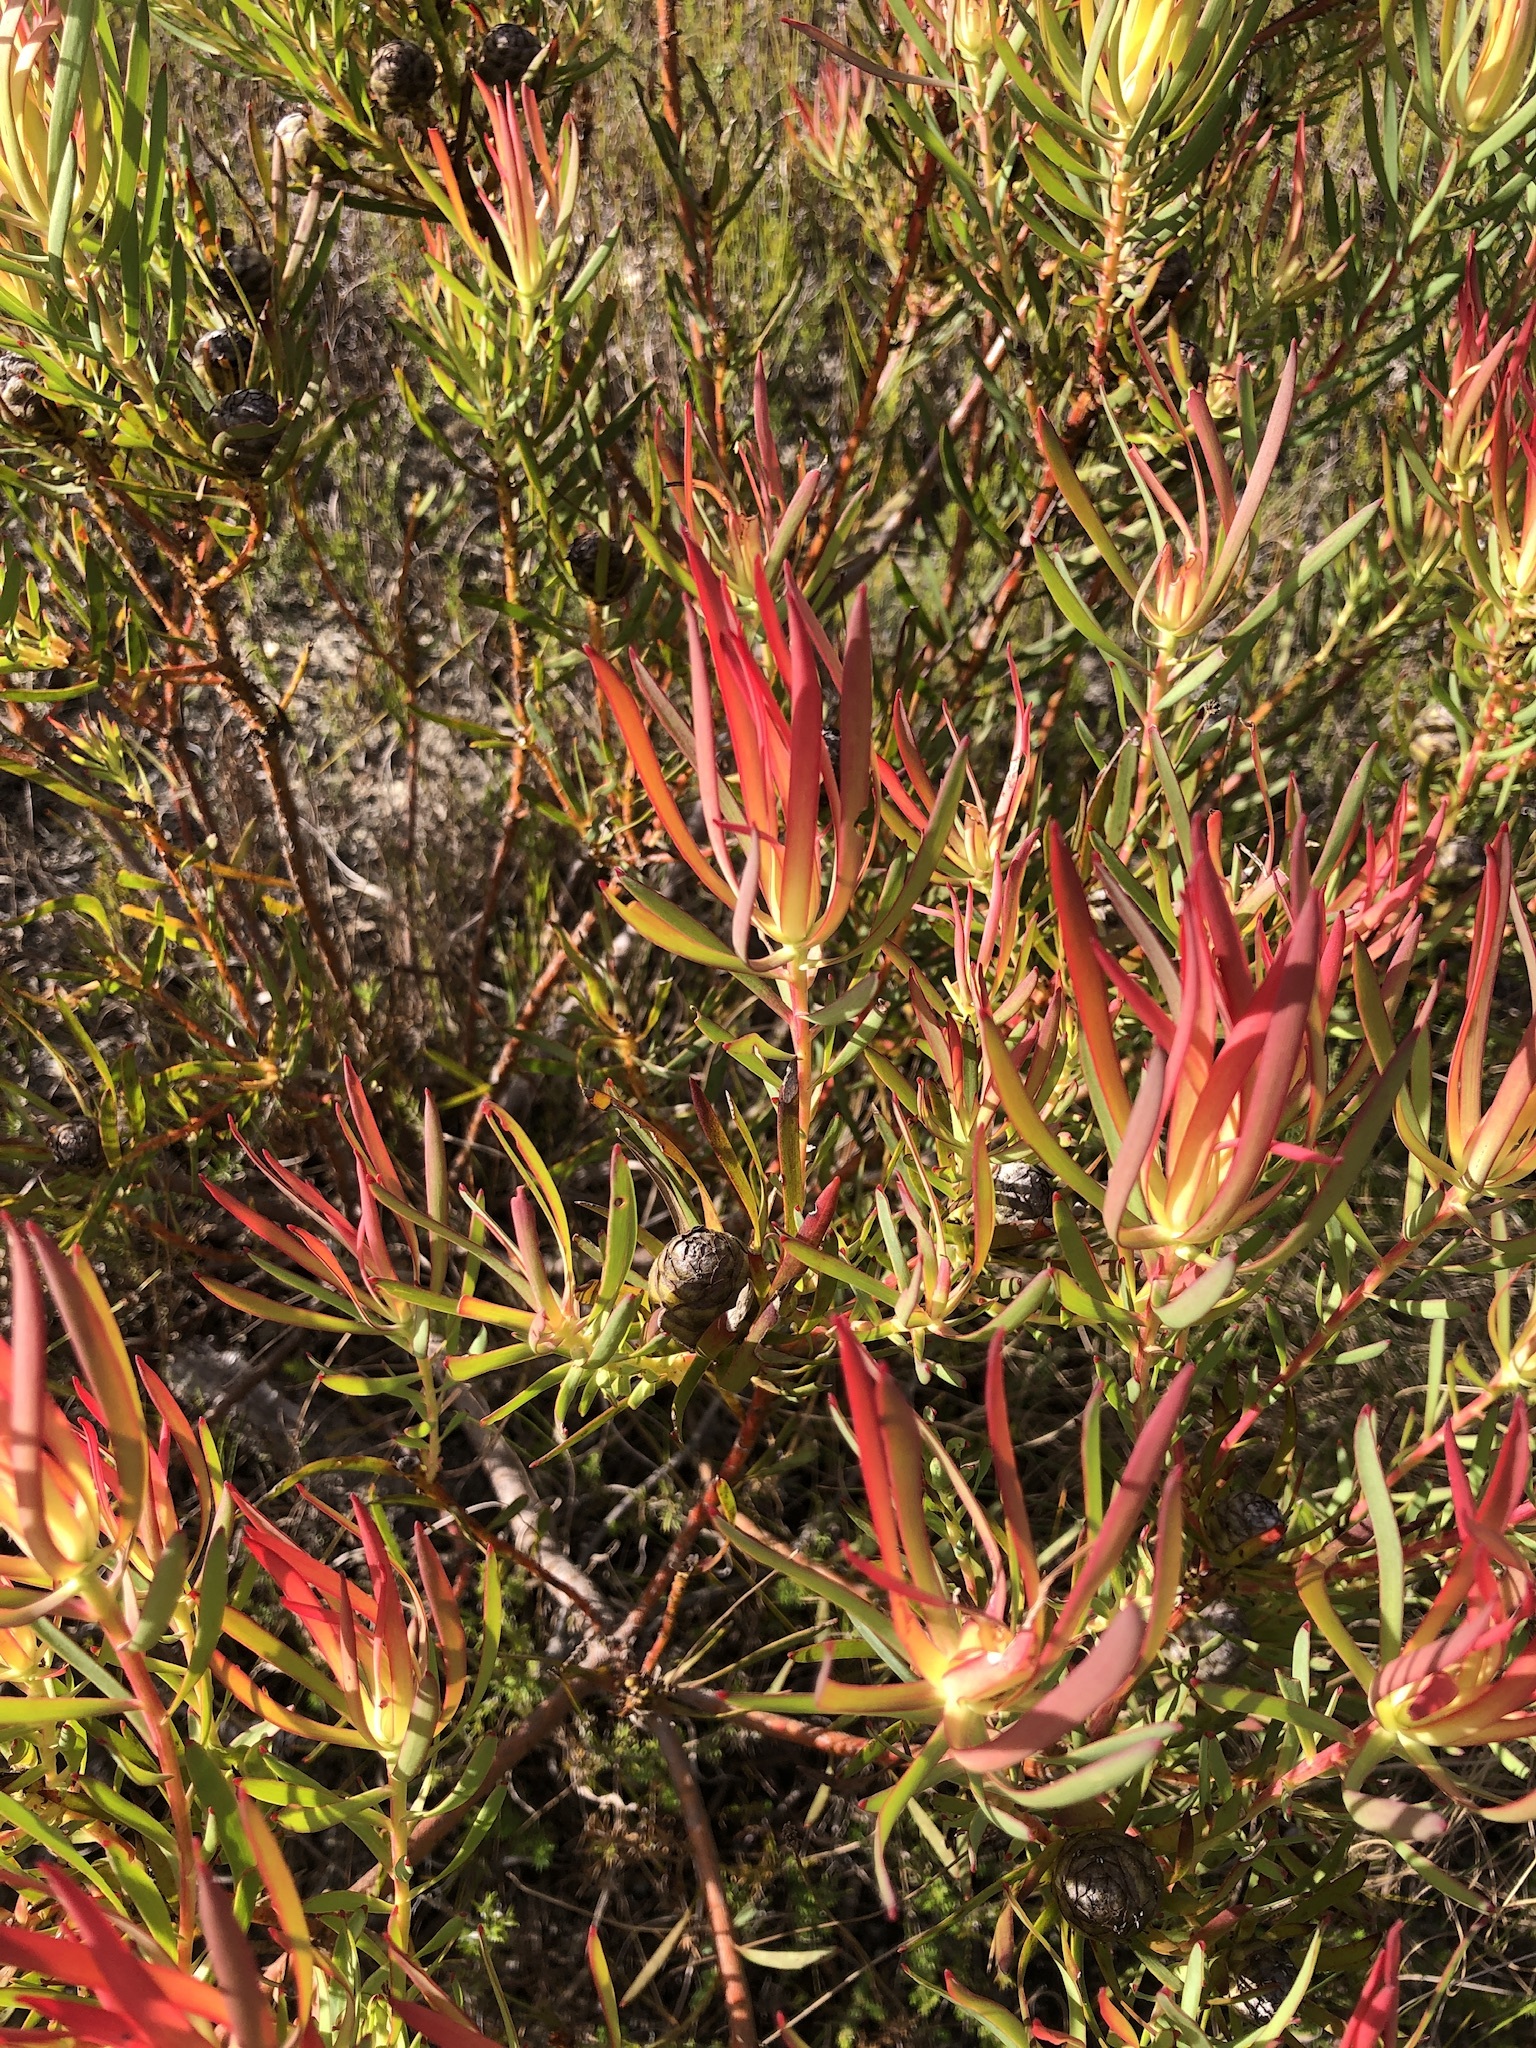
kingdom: Plantae
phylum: Tracheophyta
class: Magnoliopsida
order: Proteales
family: Proteaceae
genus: Leucadendron
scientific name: Leucadendron salignum
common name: Common sunshine conebush
